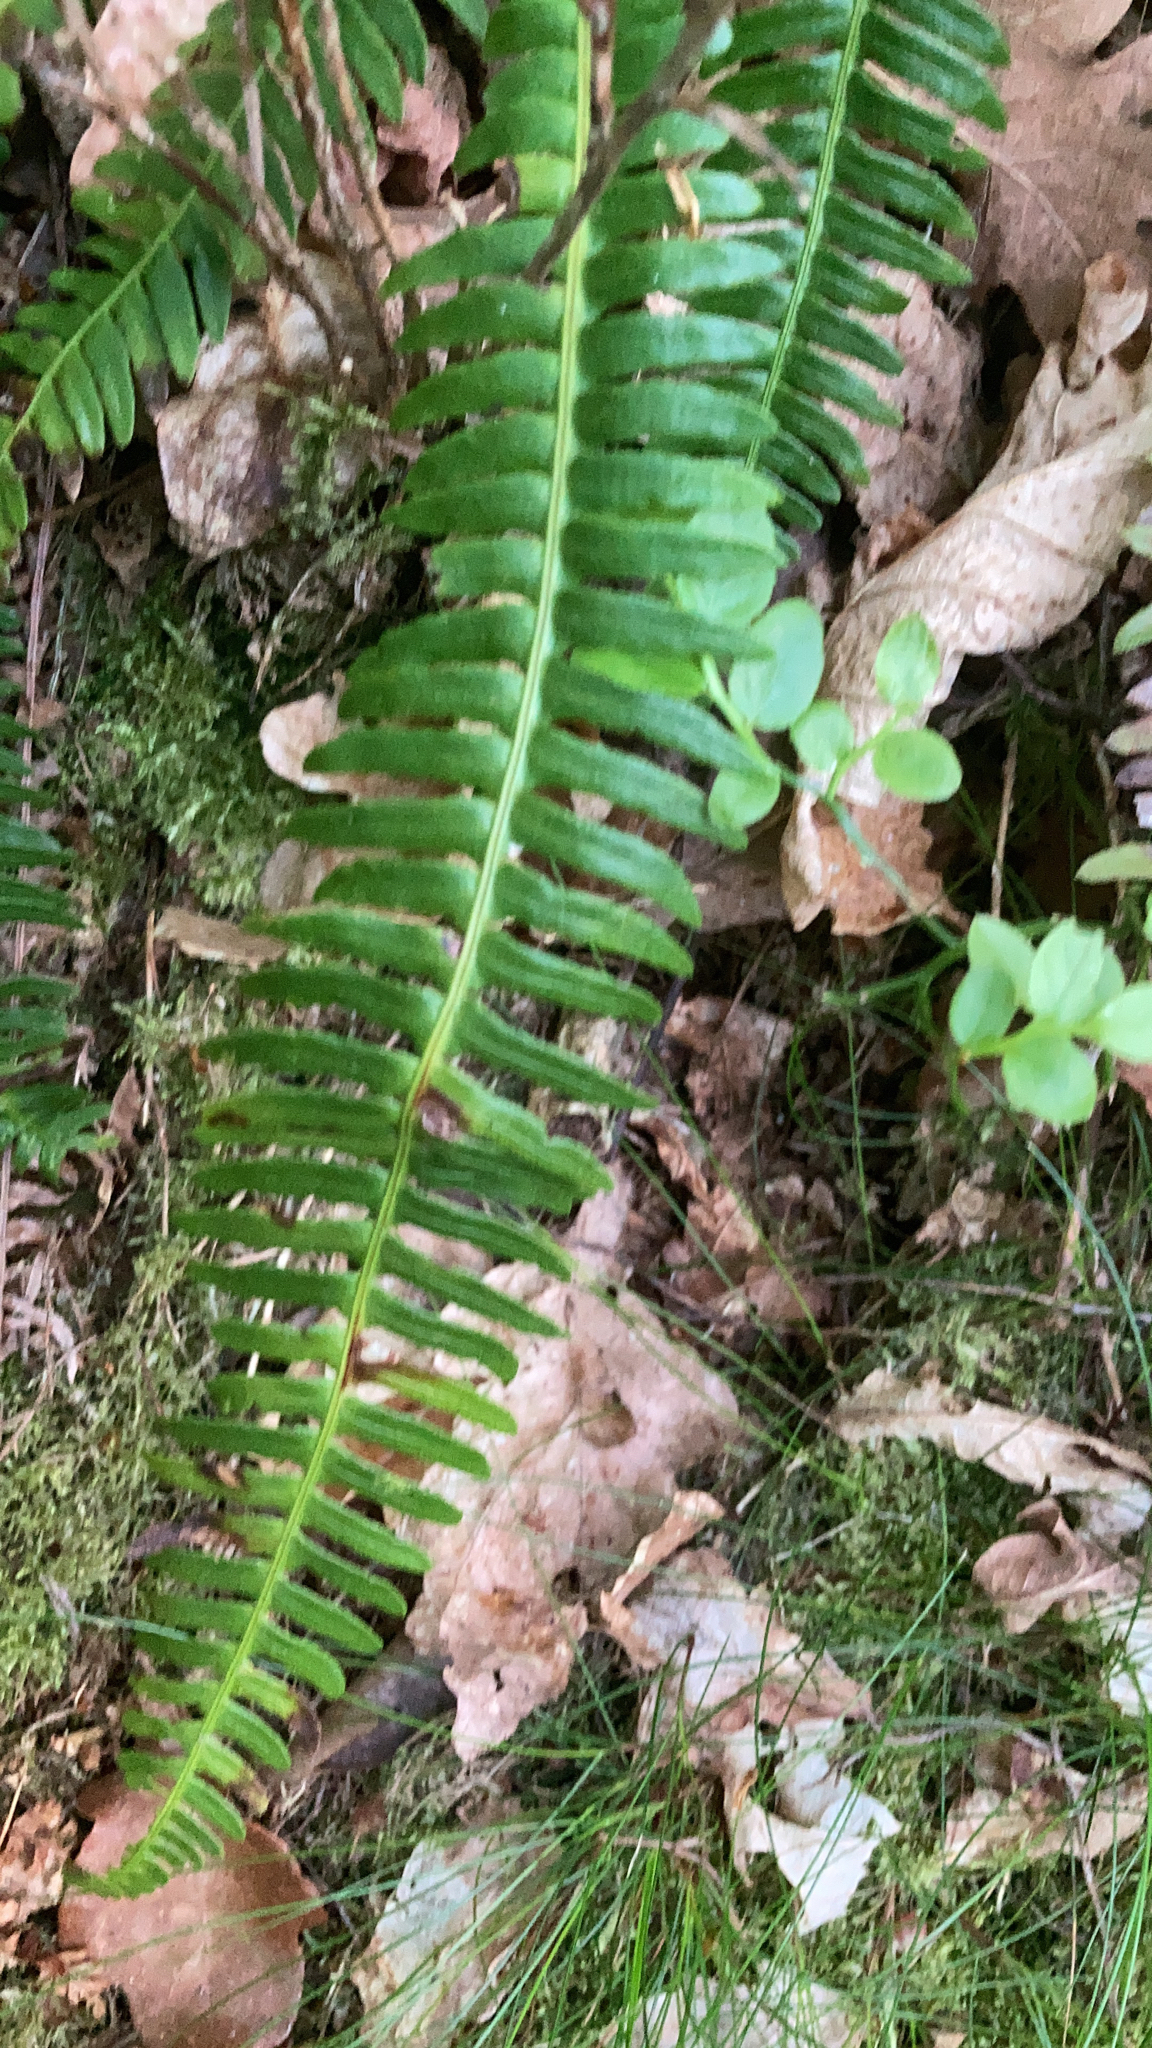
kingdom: Plantae
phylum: Tracheophyta
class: Polypodiopsida
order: Polypodiales
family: Blechnaceae
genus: Struthiopteris
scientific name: Struthiopteris spicant
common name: Deer fern
